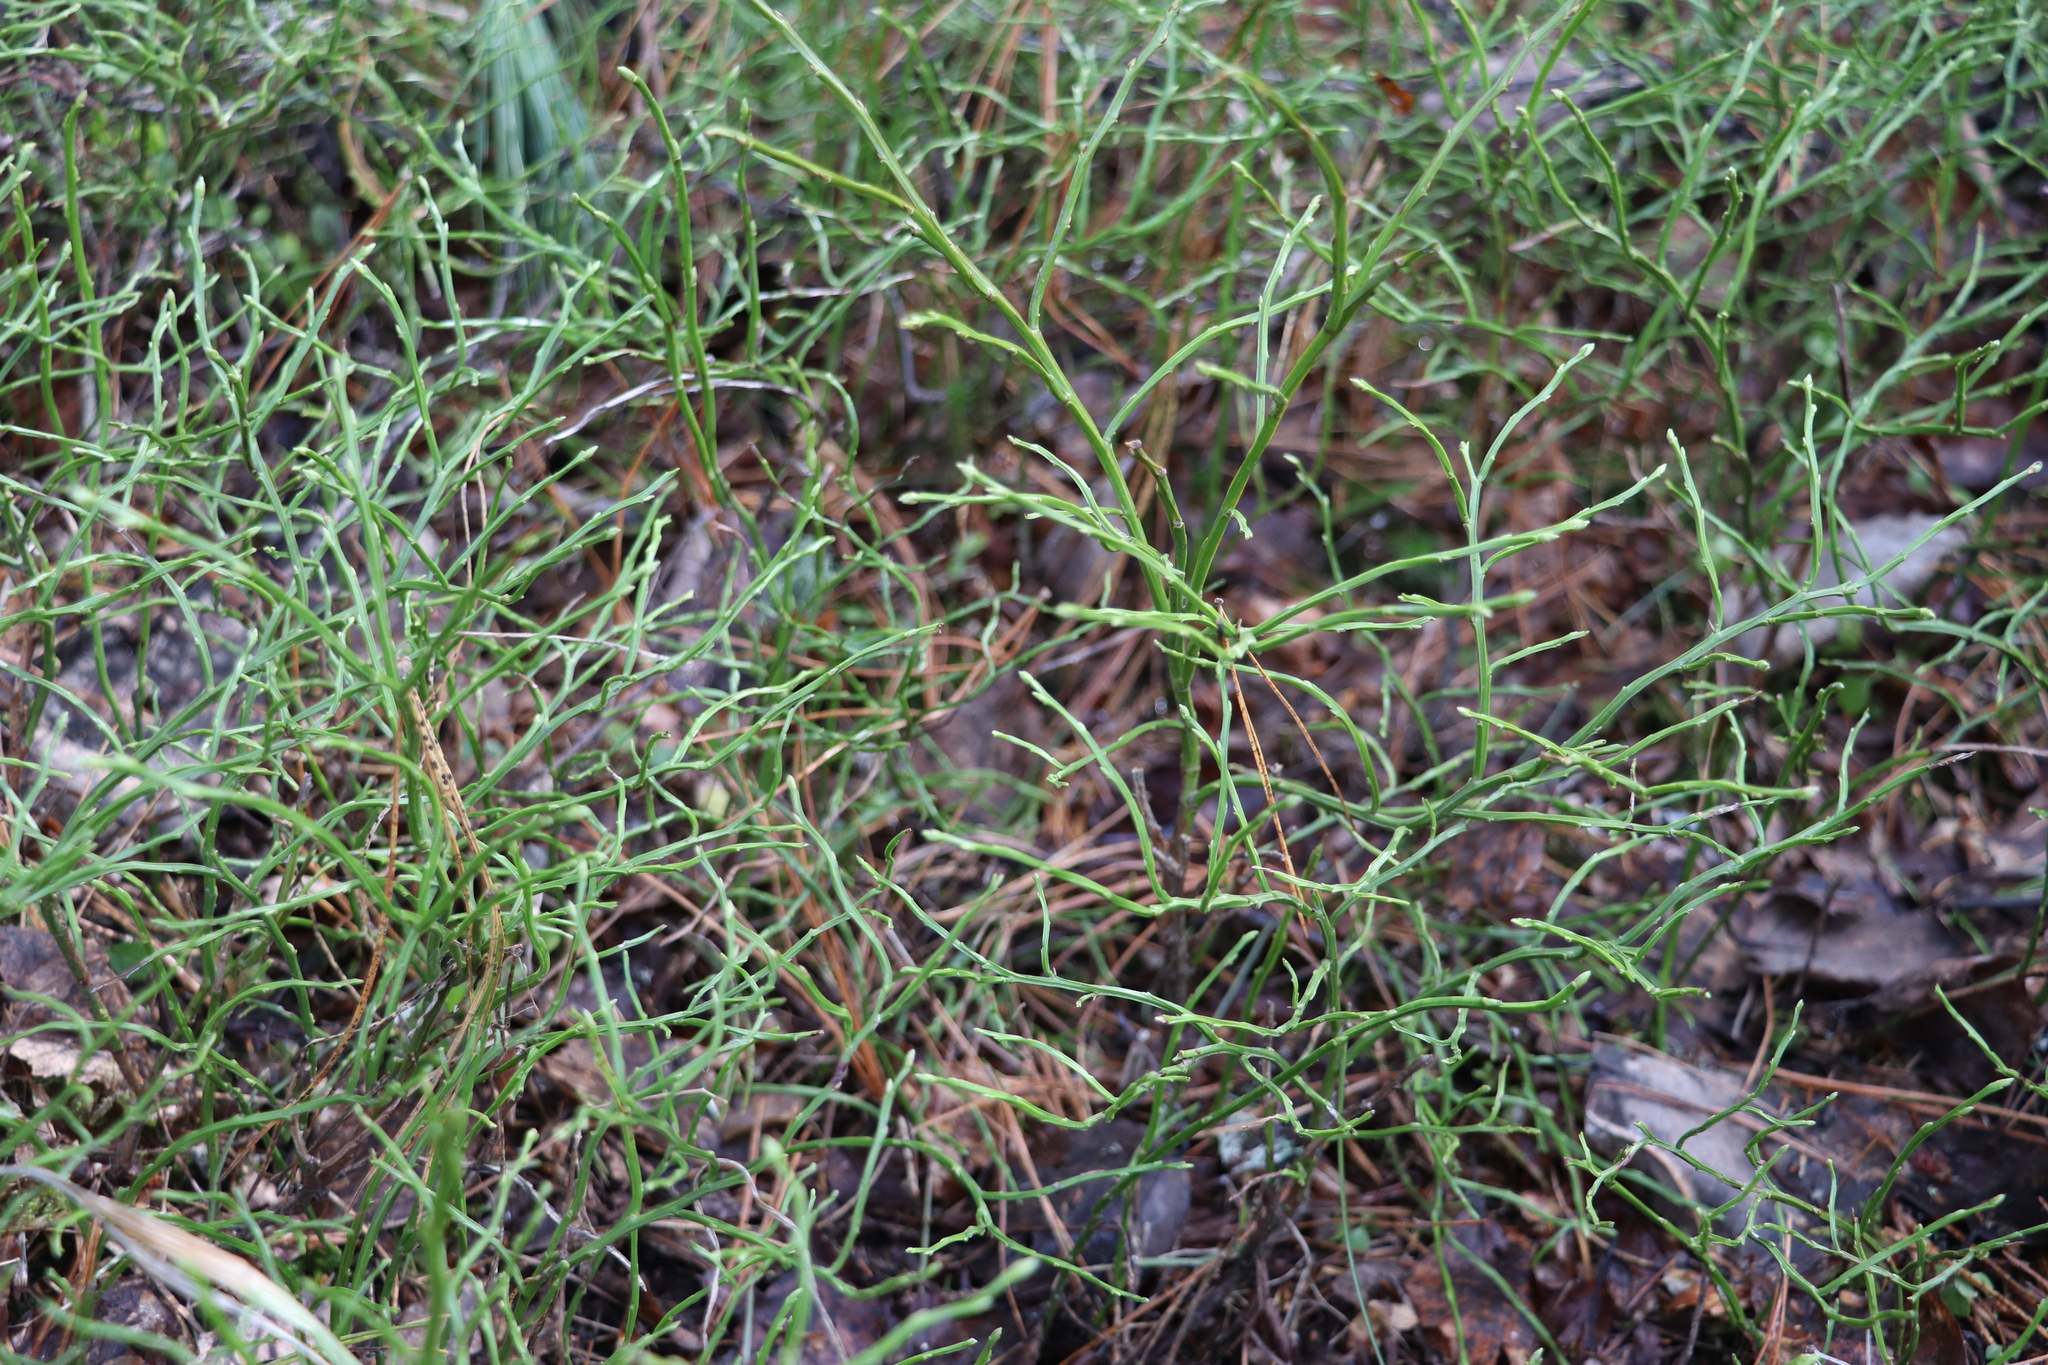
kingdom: Plantae
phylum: Tracheophyta
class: Magnoliopsida
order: Ericales
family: Ericaceae
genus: Vaccinium
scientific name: Vaccinium myrtillus
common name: Bilberry
